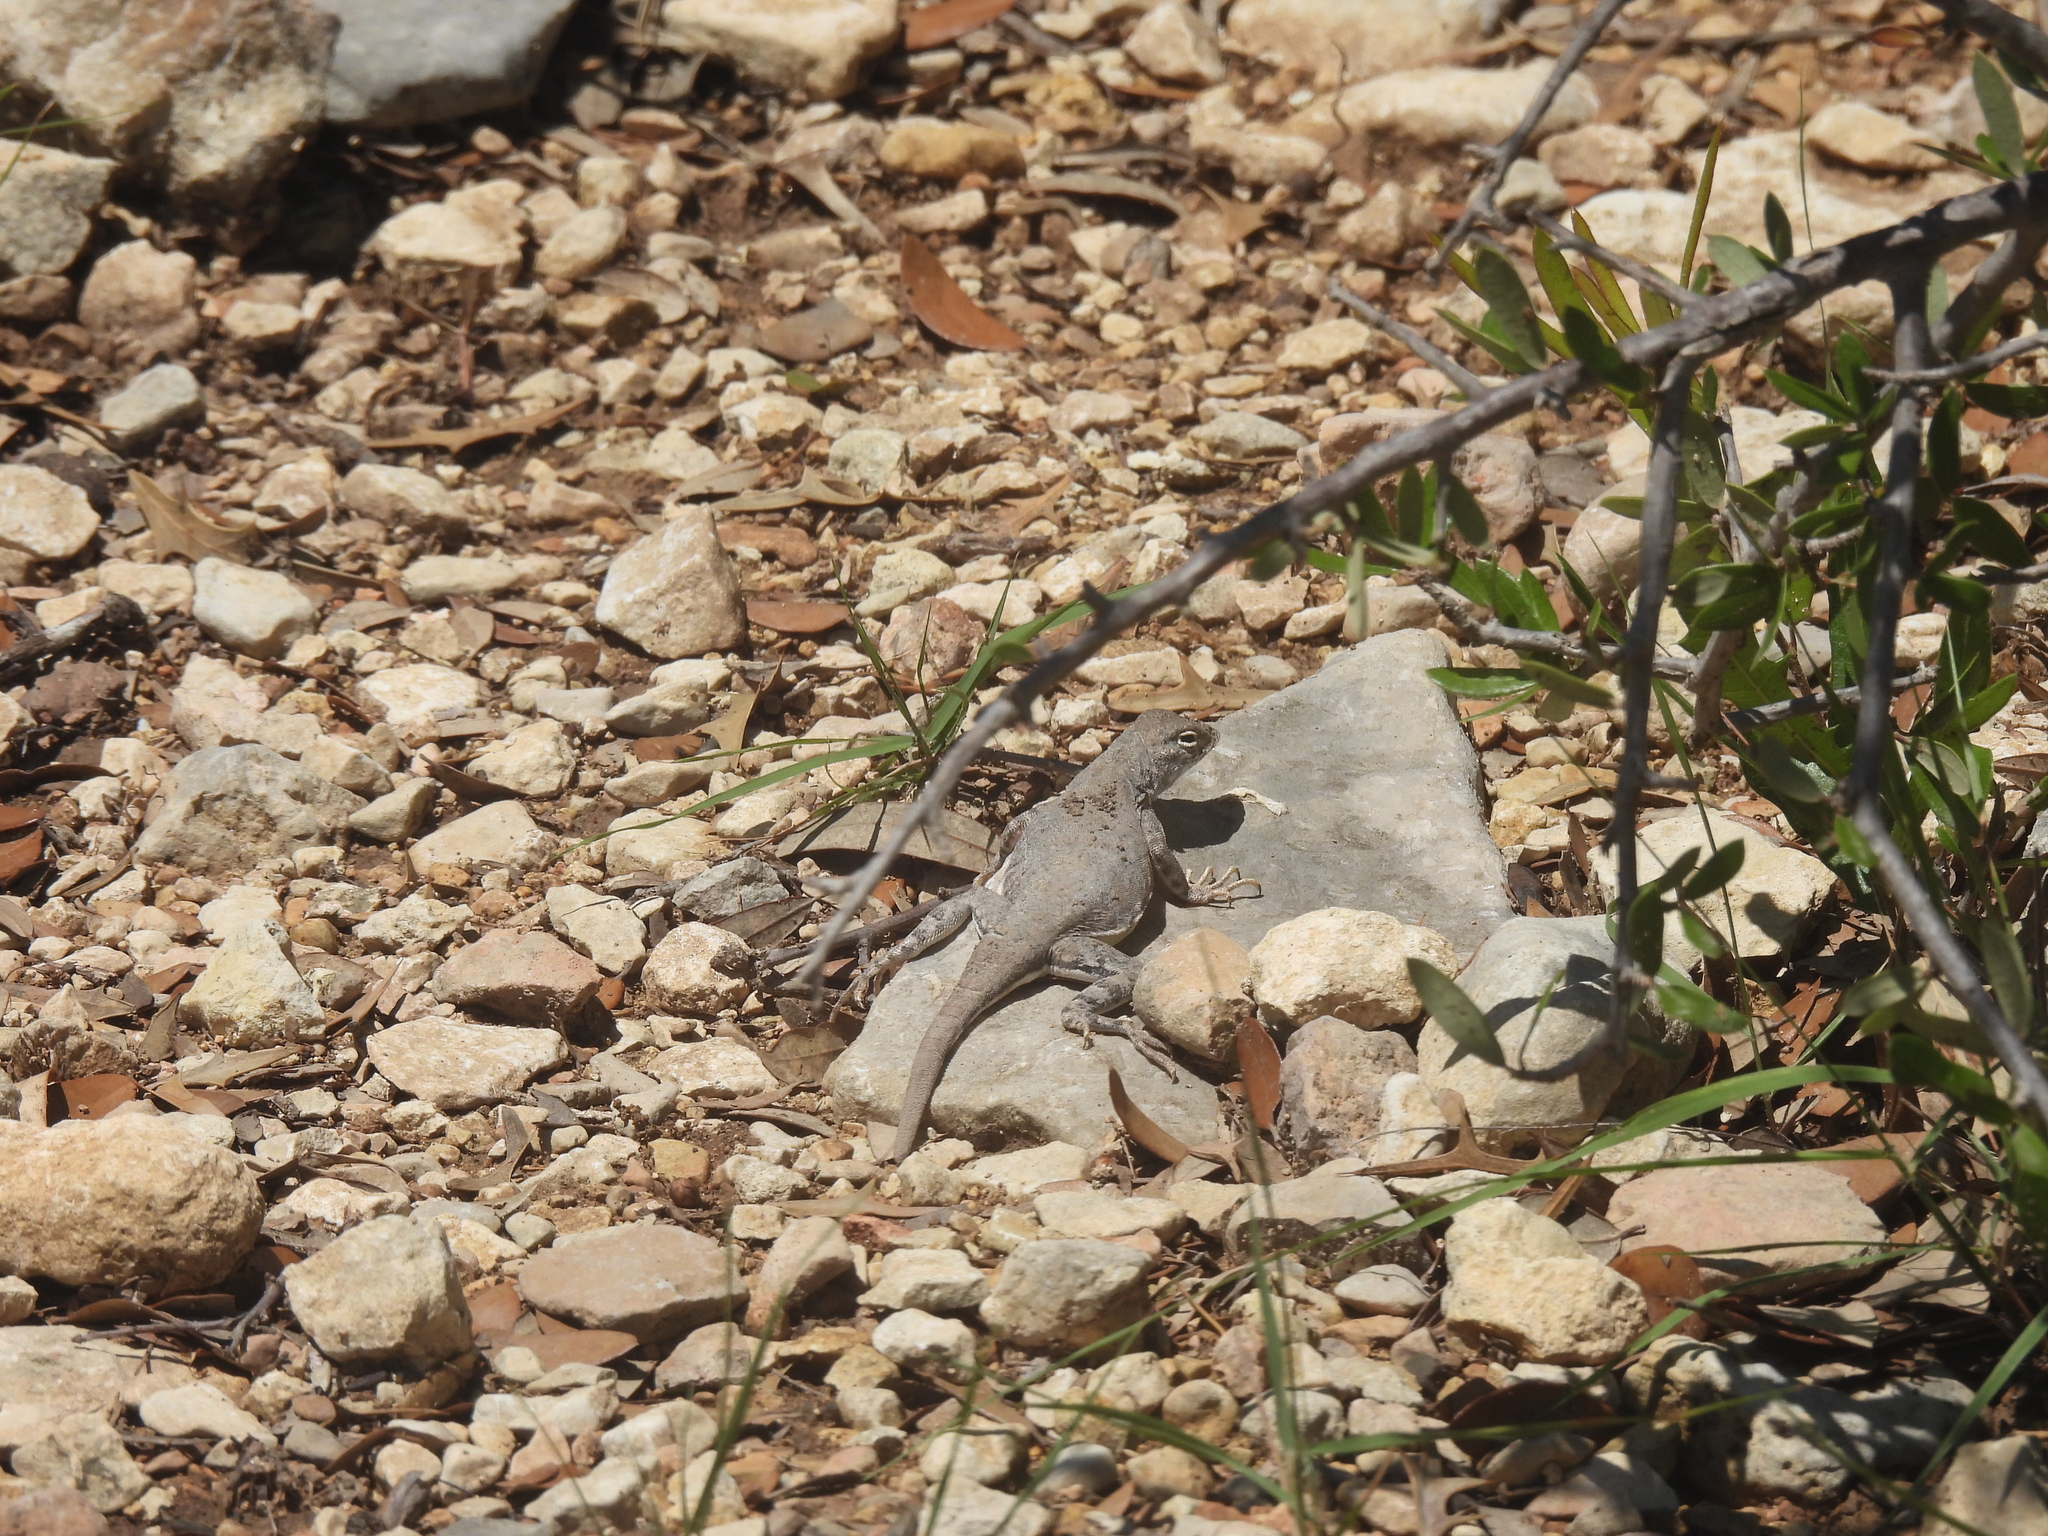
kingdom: Animalia
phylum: Chordata
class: Squamata
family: Phrynosomatidae
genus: Cophosaurus
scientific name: Cophosaurus texanus
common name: Greater earless lizard
